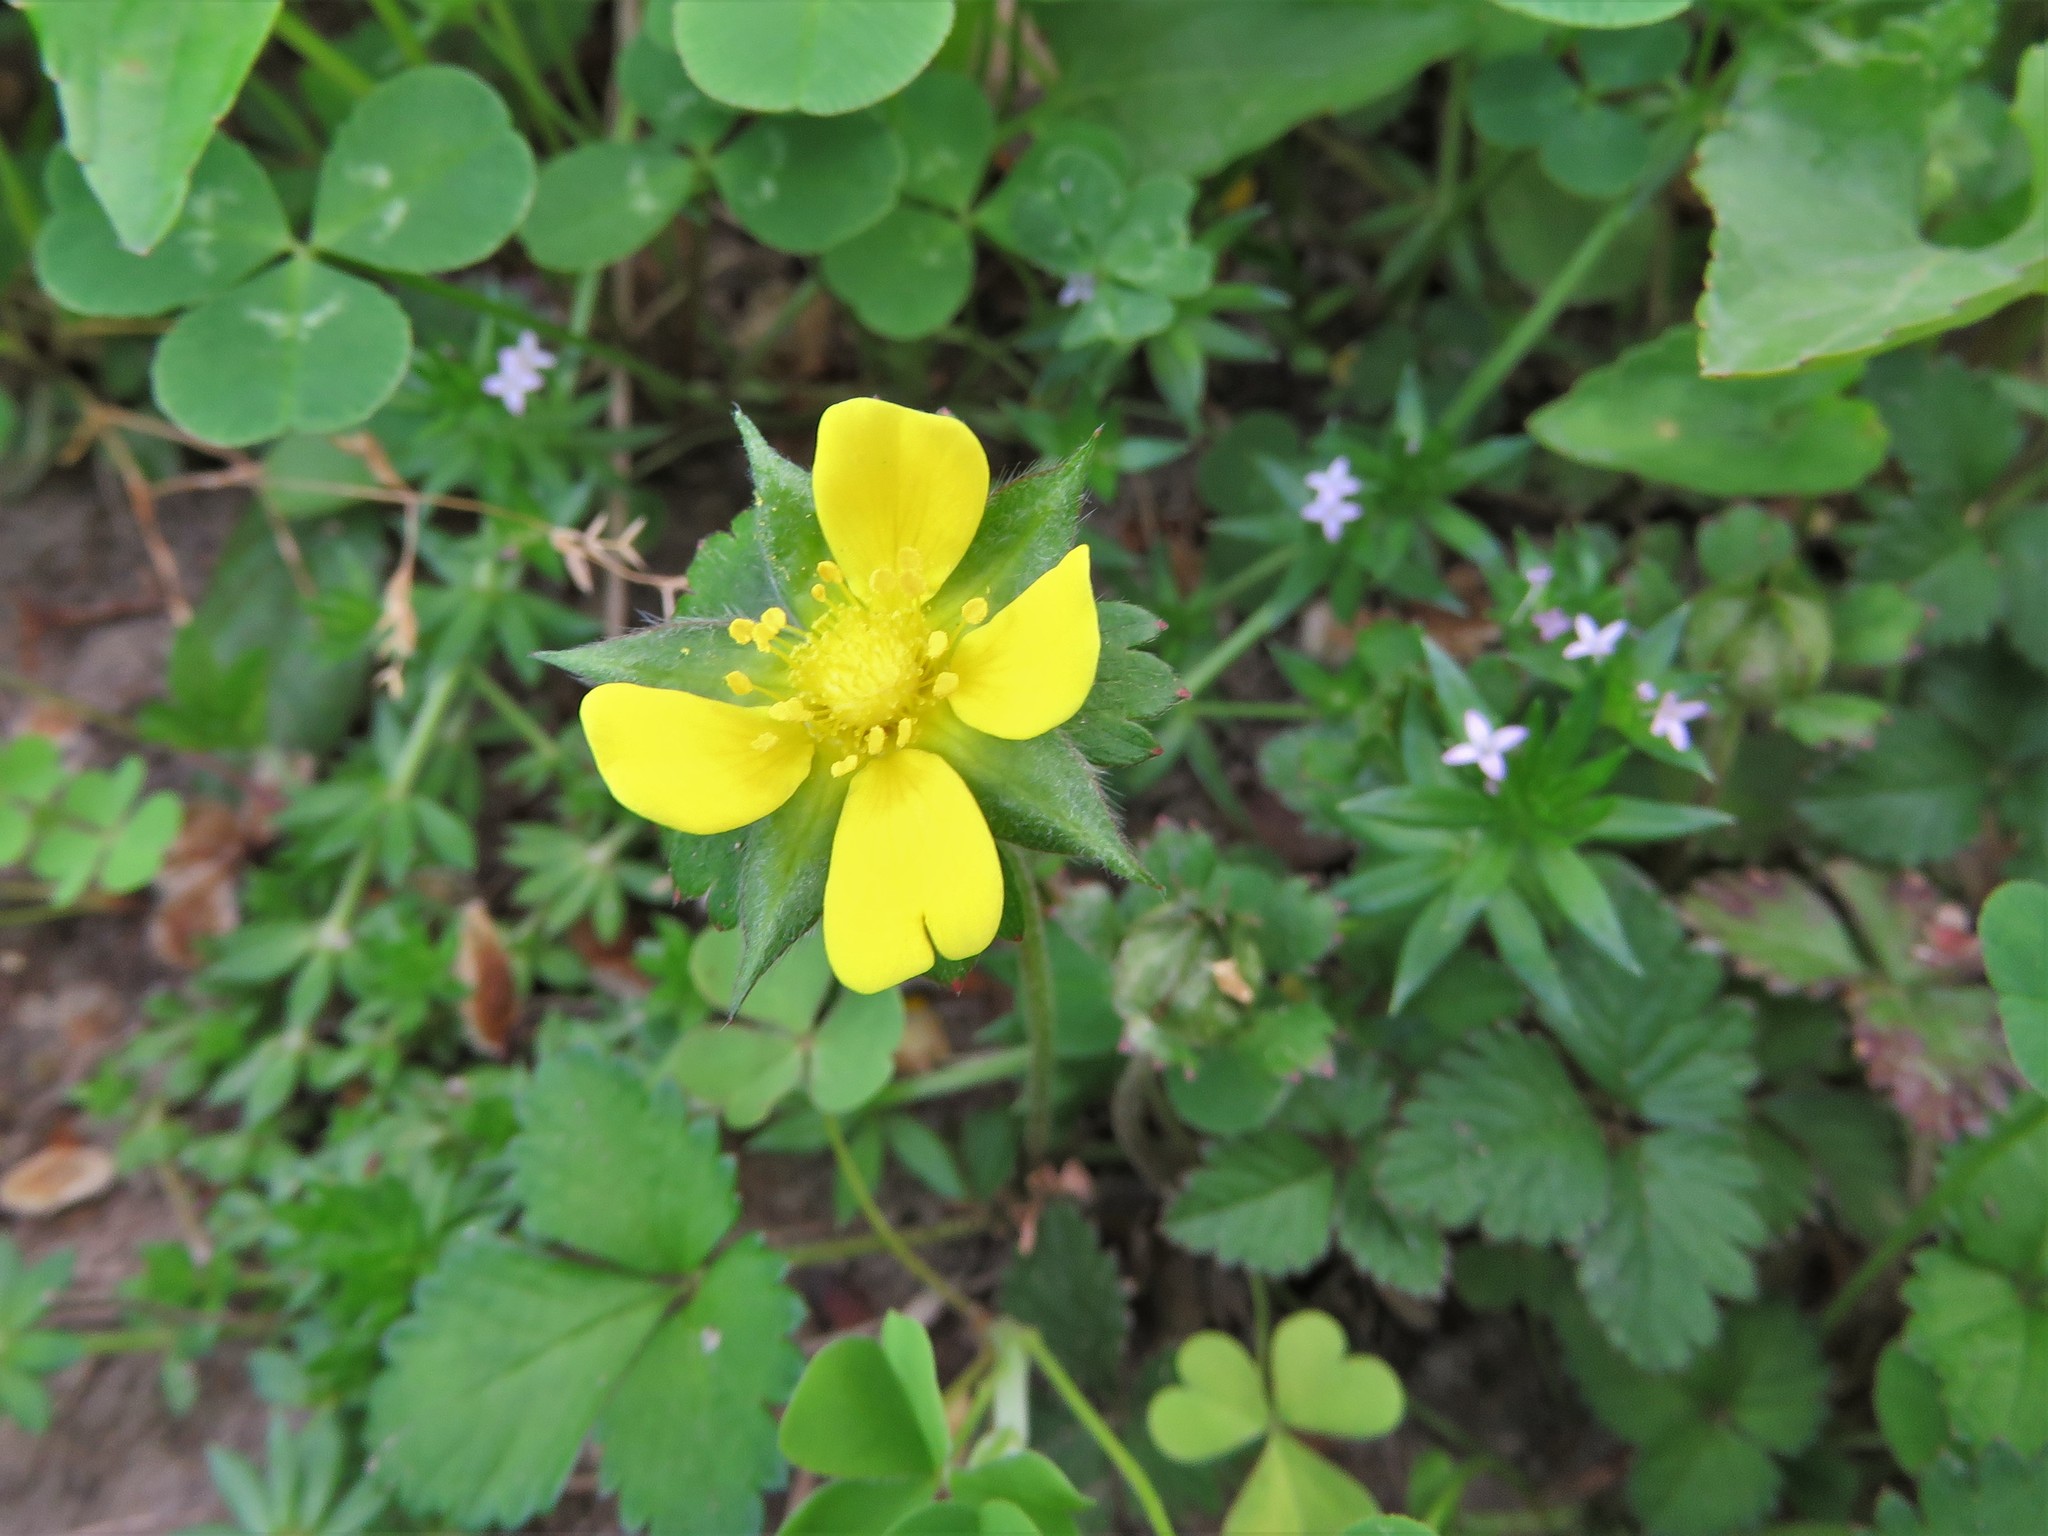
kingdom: Plantae
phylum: Tracheophyta
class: Magnoliopsida
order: Rosales
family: Rosaceae
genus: Potentilla
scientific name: Potentilla indica
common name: Yellow-flowered strawberry
